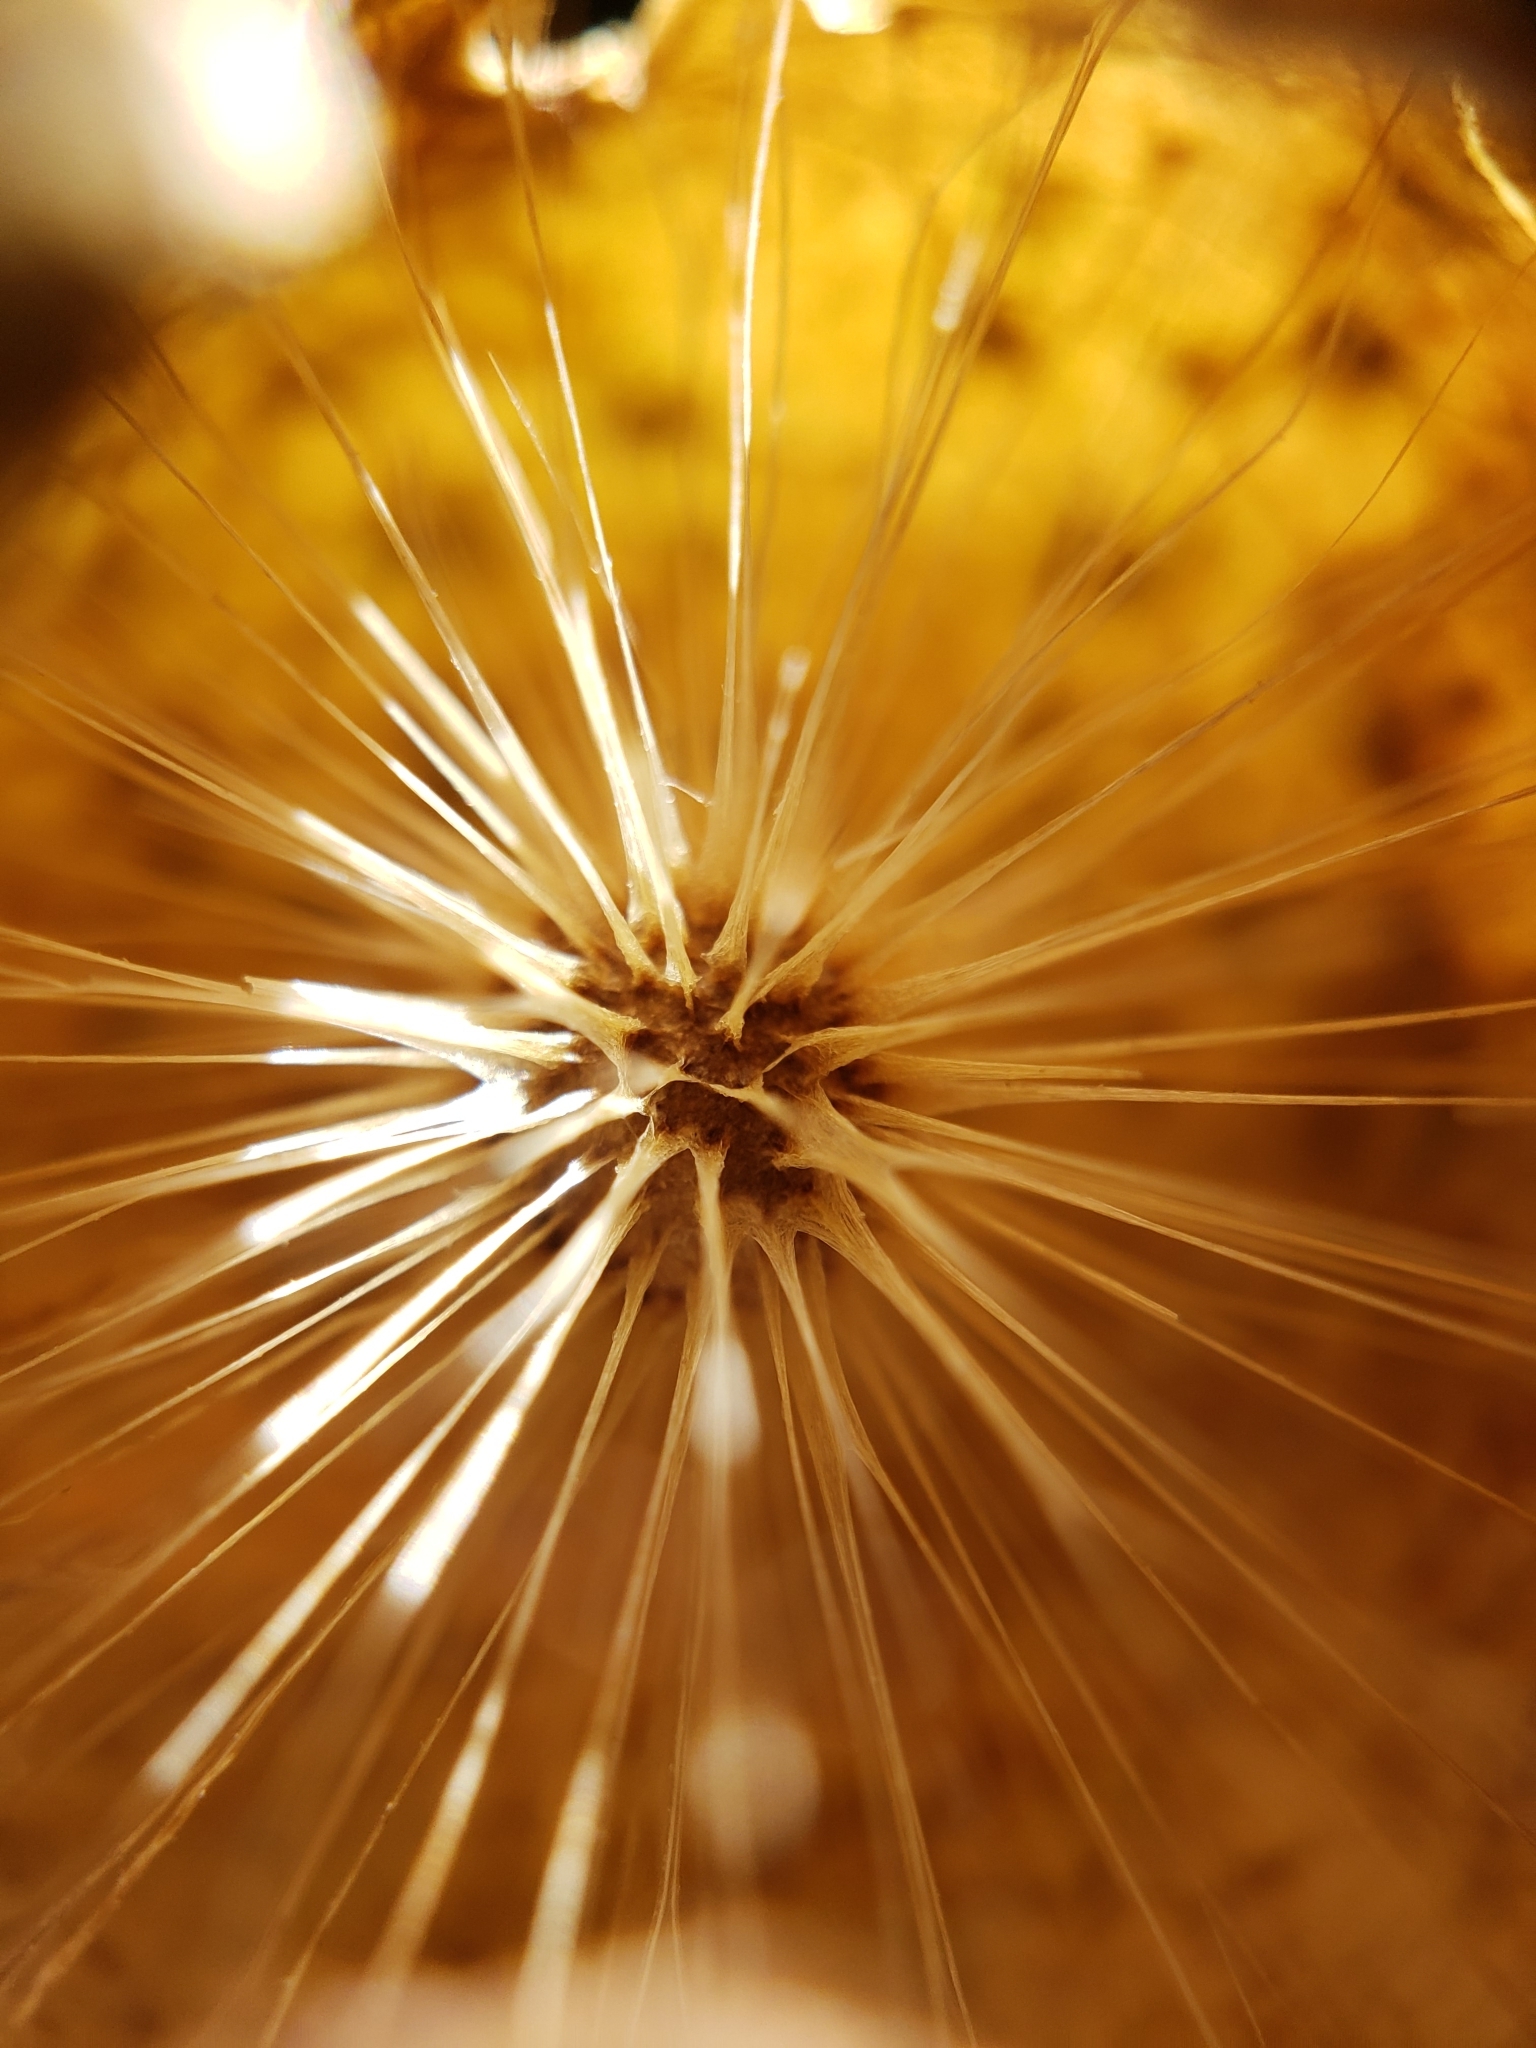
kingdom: Animalia
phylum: Arthropoda
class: Insecta
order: Hymenoptera
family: Cynipidae
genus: Amphibolips
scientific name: Amphibolips
